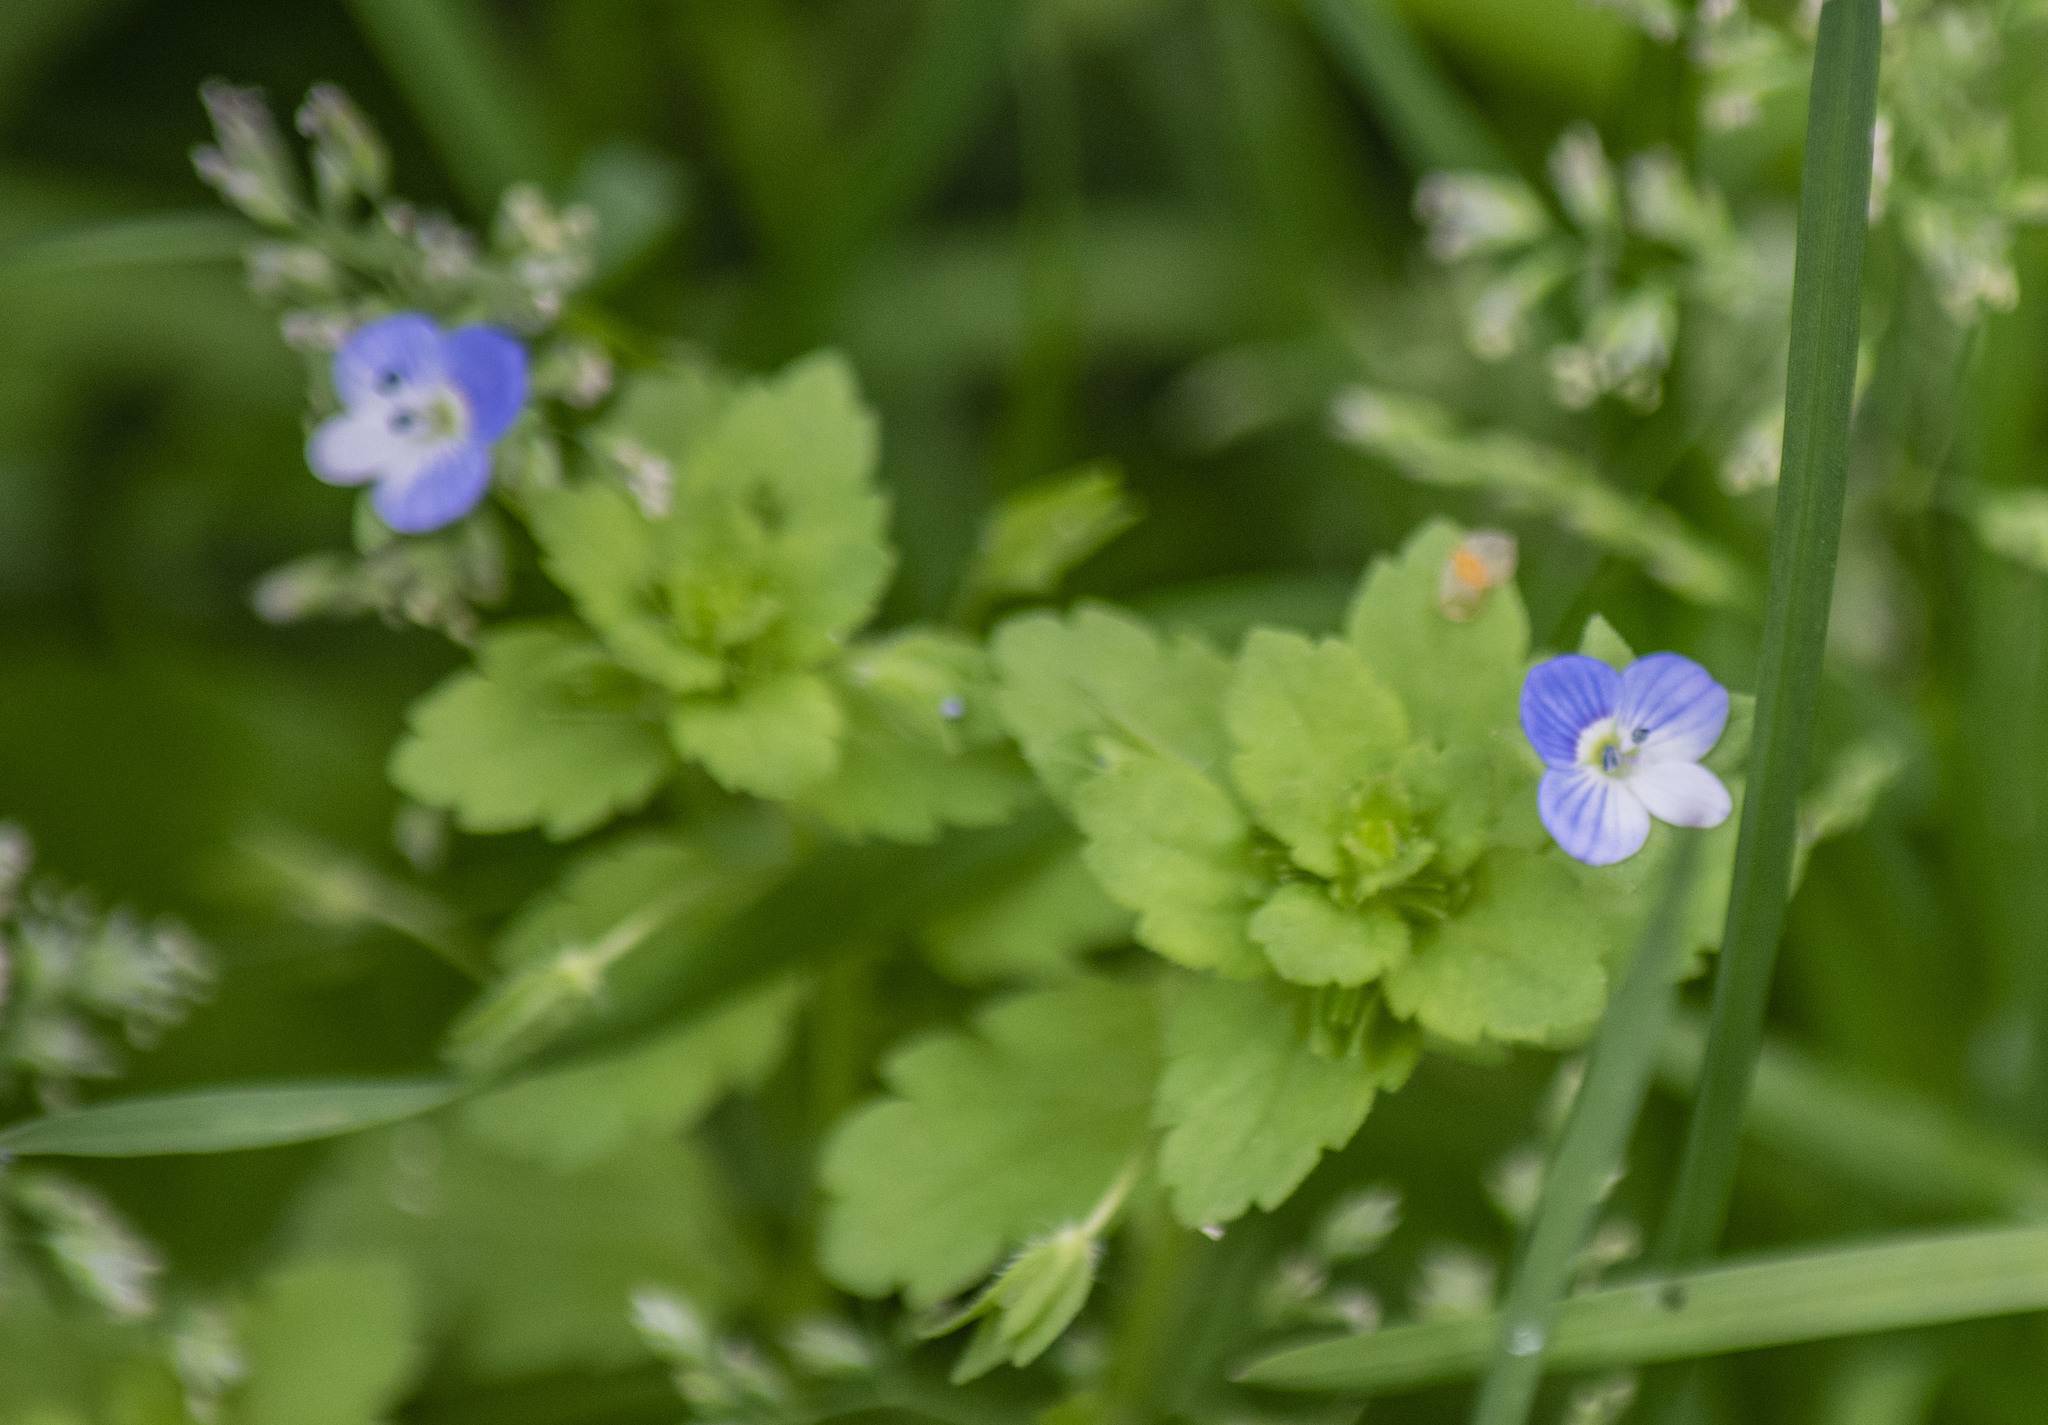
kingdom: Plantae
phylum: Tracheophyta
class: Magnoliopsida
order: Lamiales
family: Plantaginaceae
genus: Veronica
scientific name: Veronica persica
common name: Common field-speedwell
